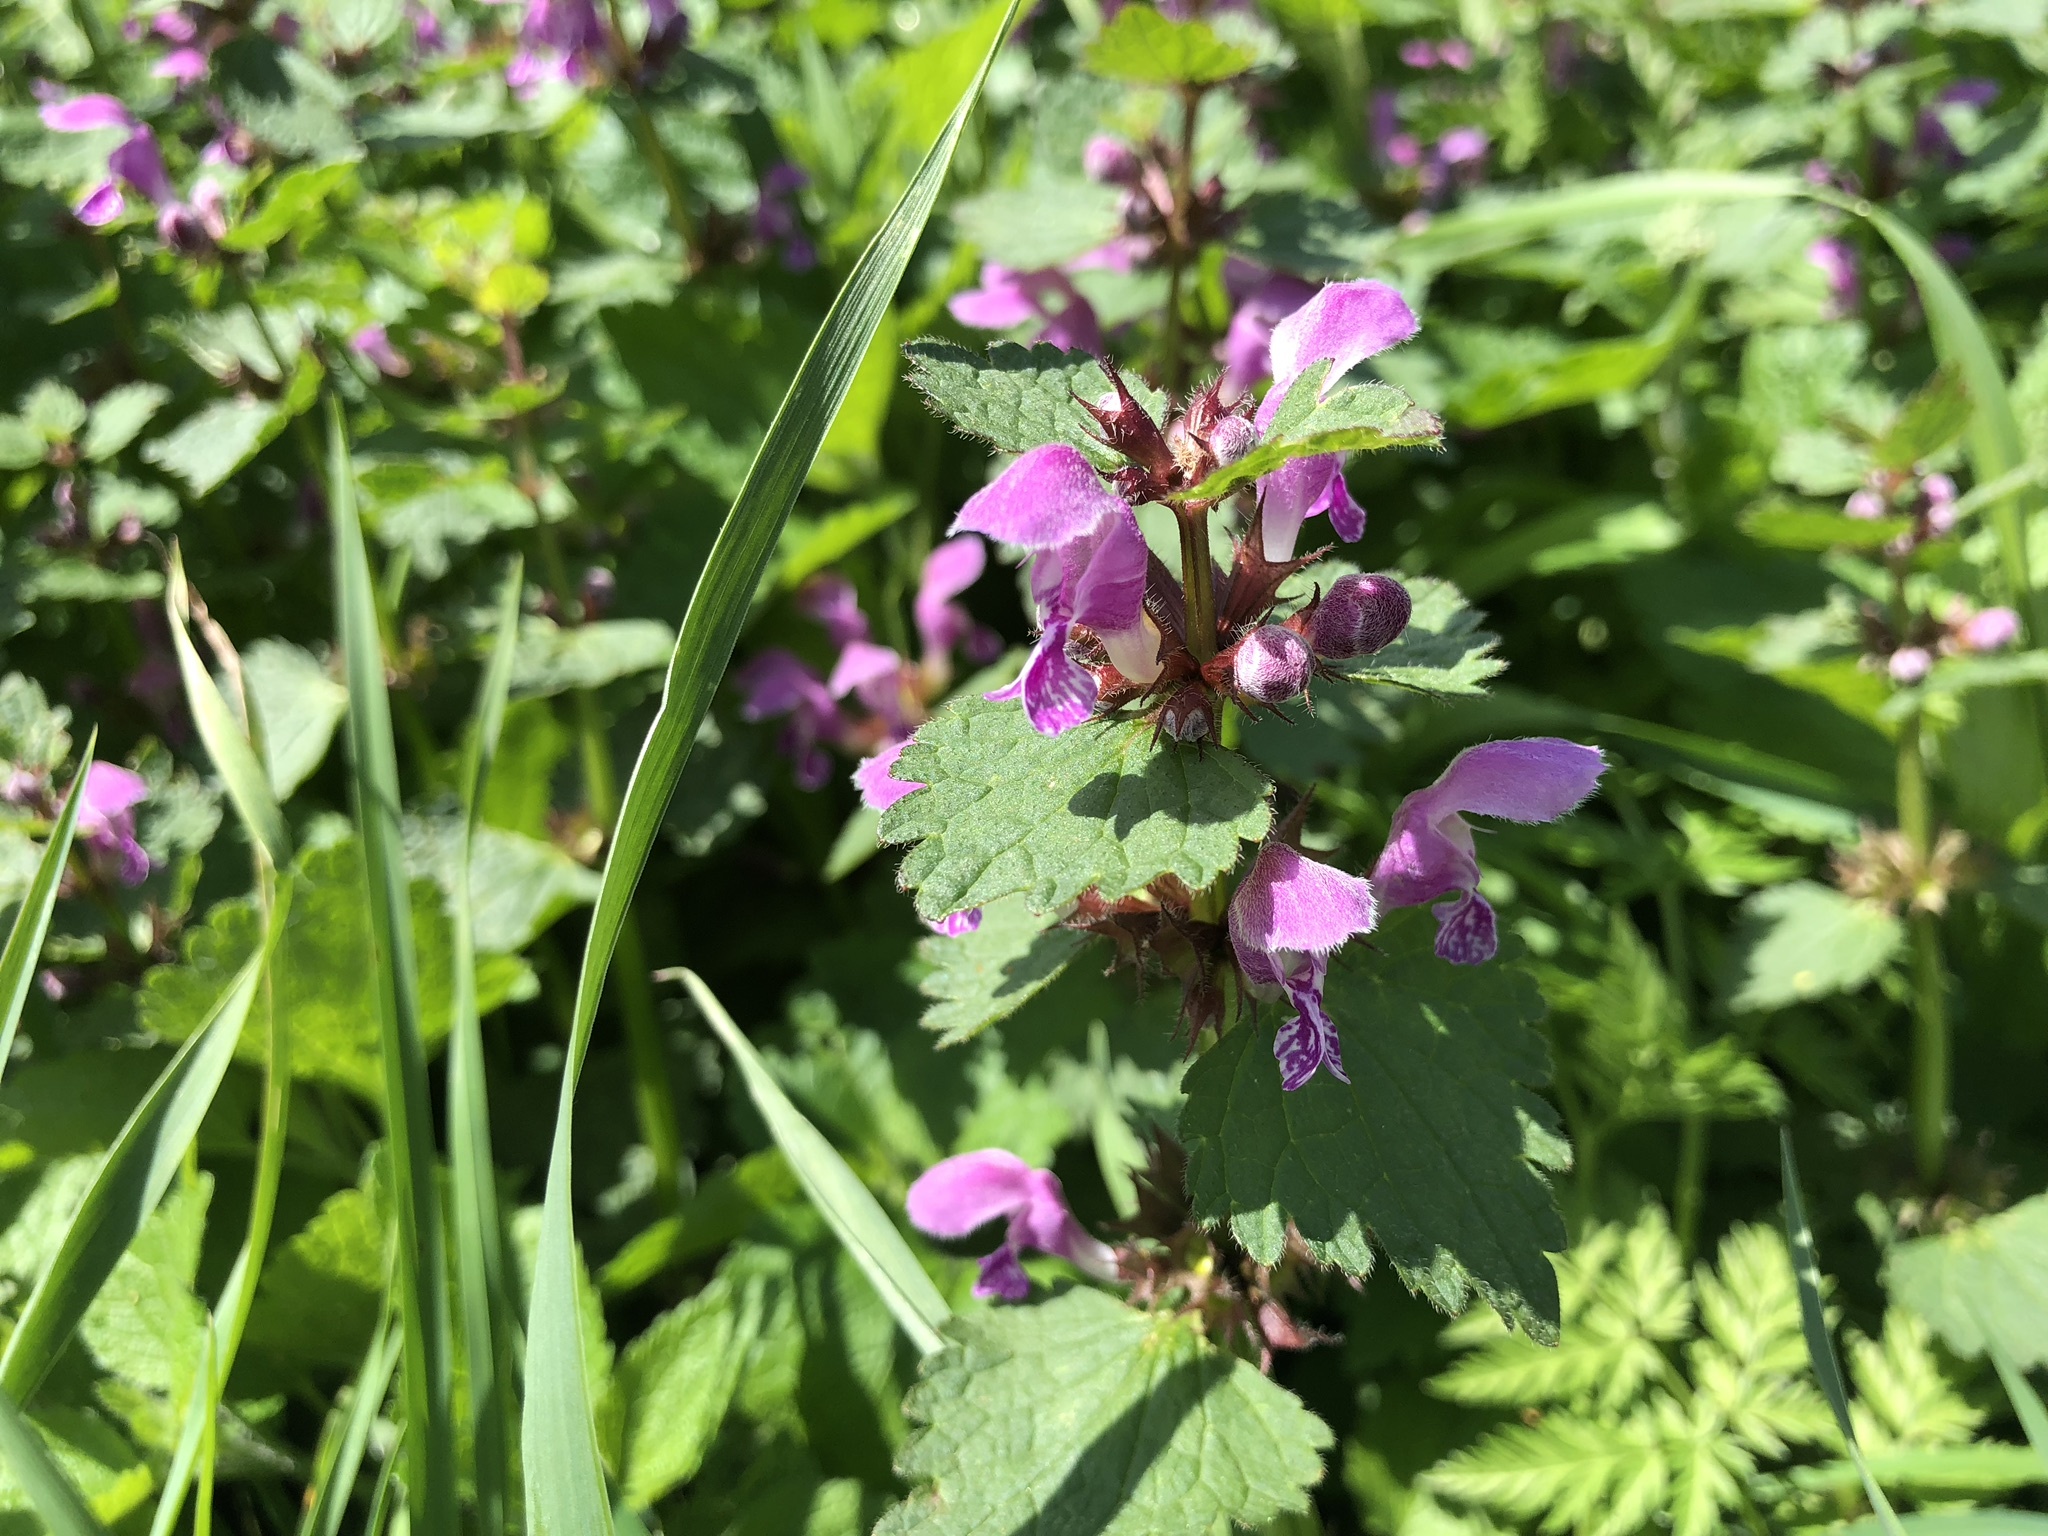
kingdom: Plantae
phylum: Tracheophyta
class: Magnoliopsida
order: Lamiales
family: Lamiaceae
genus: Lamium
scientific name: Lamium maculatum
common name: Spotted dead-nettle
